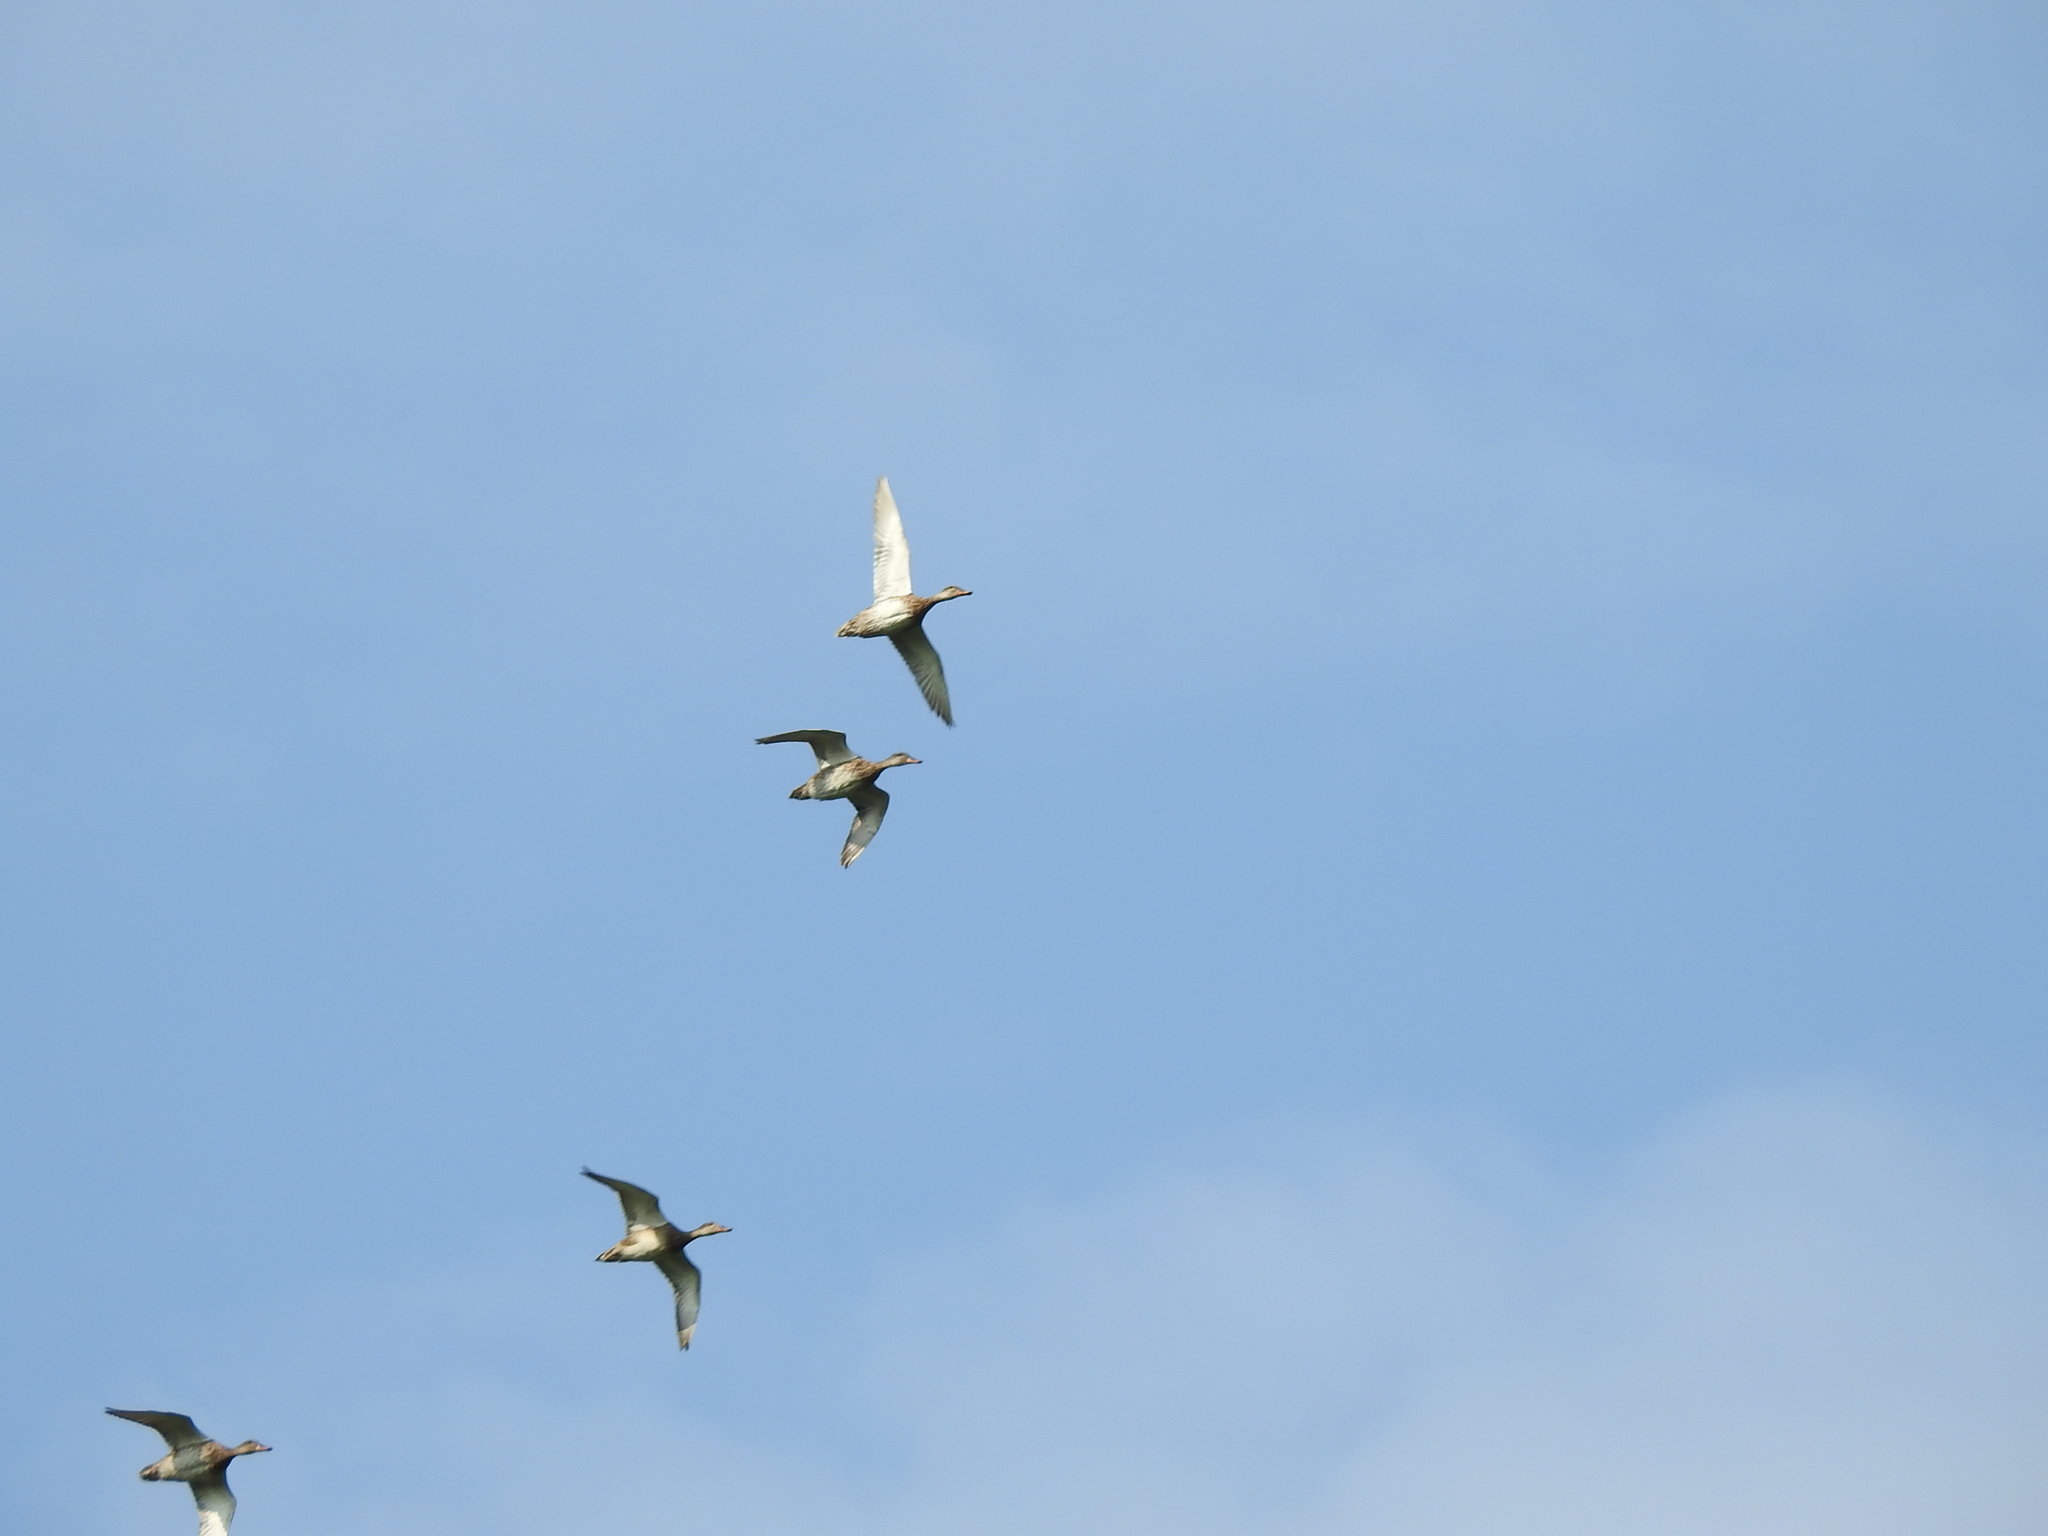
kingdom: Animalia
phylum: Chordata
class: Aves
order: Anseriformes
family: Anatidae
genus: Mareca
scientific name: Mareca strepera
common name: Gadwall
